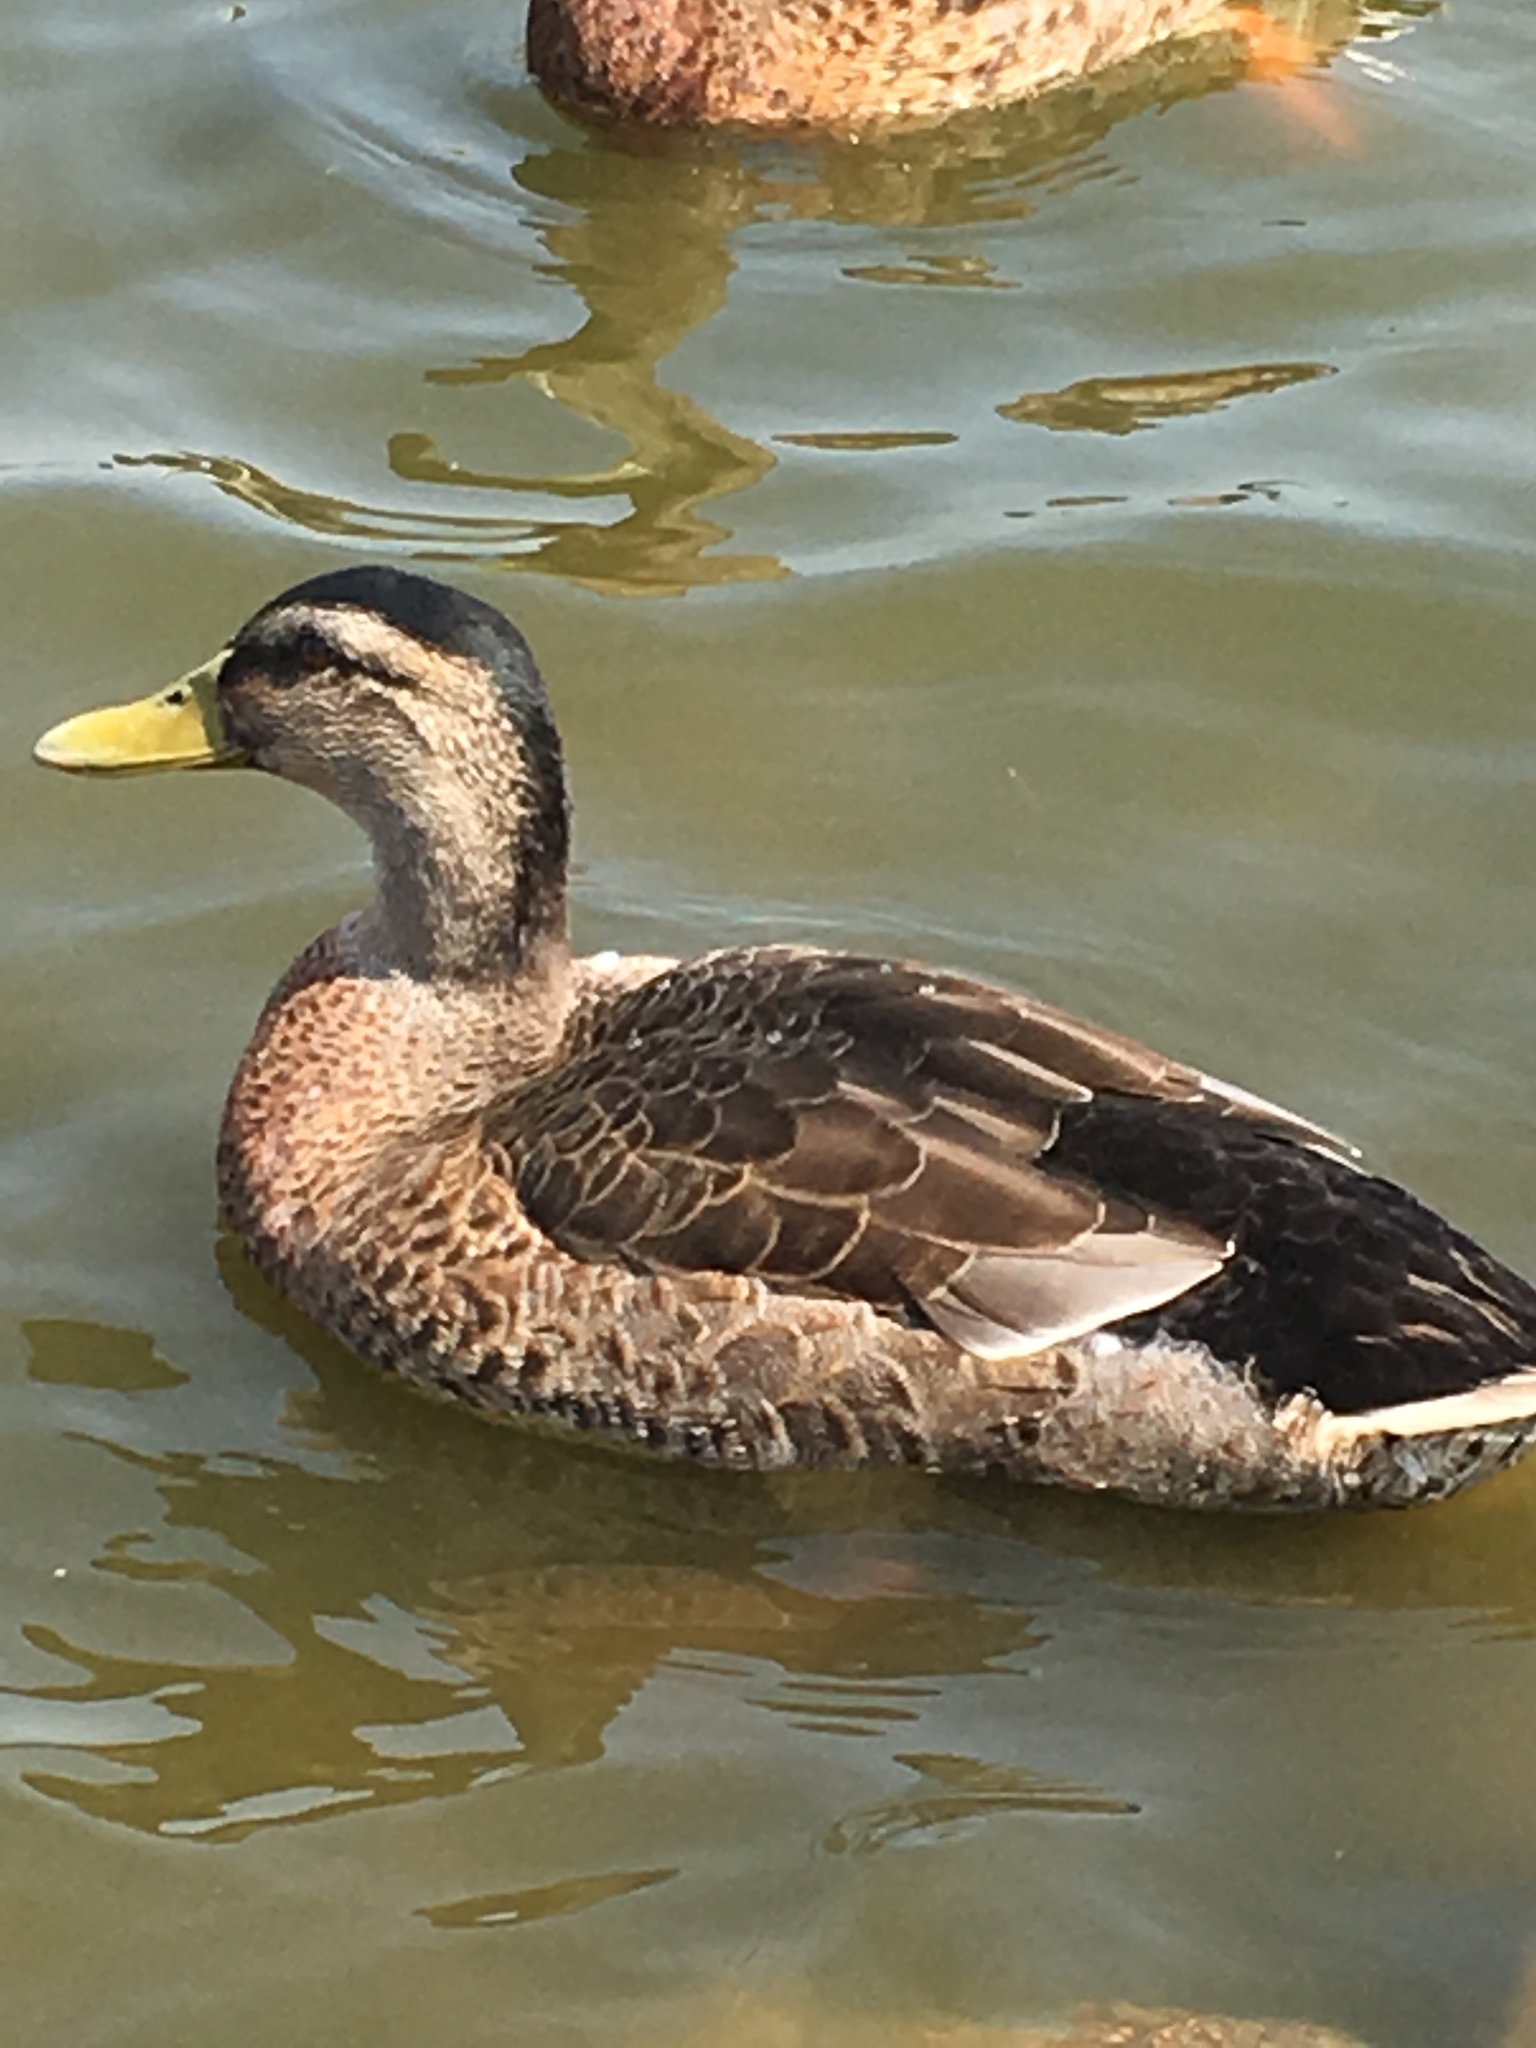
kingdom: Animalia
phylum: Chordata
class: Aves
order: Anseriformes
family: Anatidae
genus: Anas
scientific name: Anas platyrhynchos
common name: Mallard
